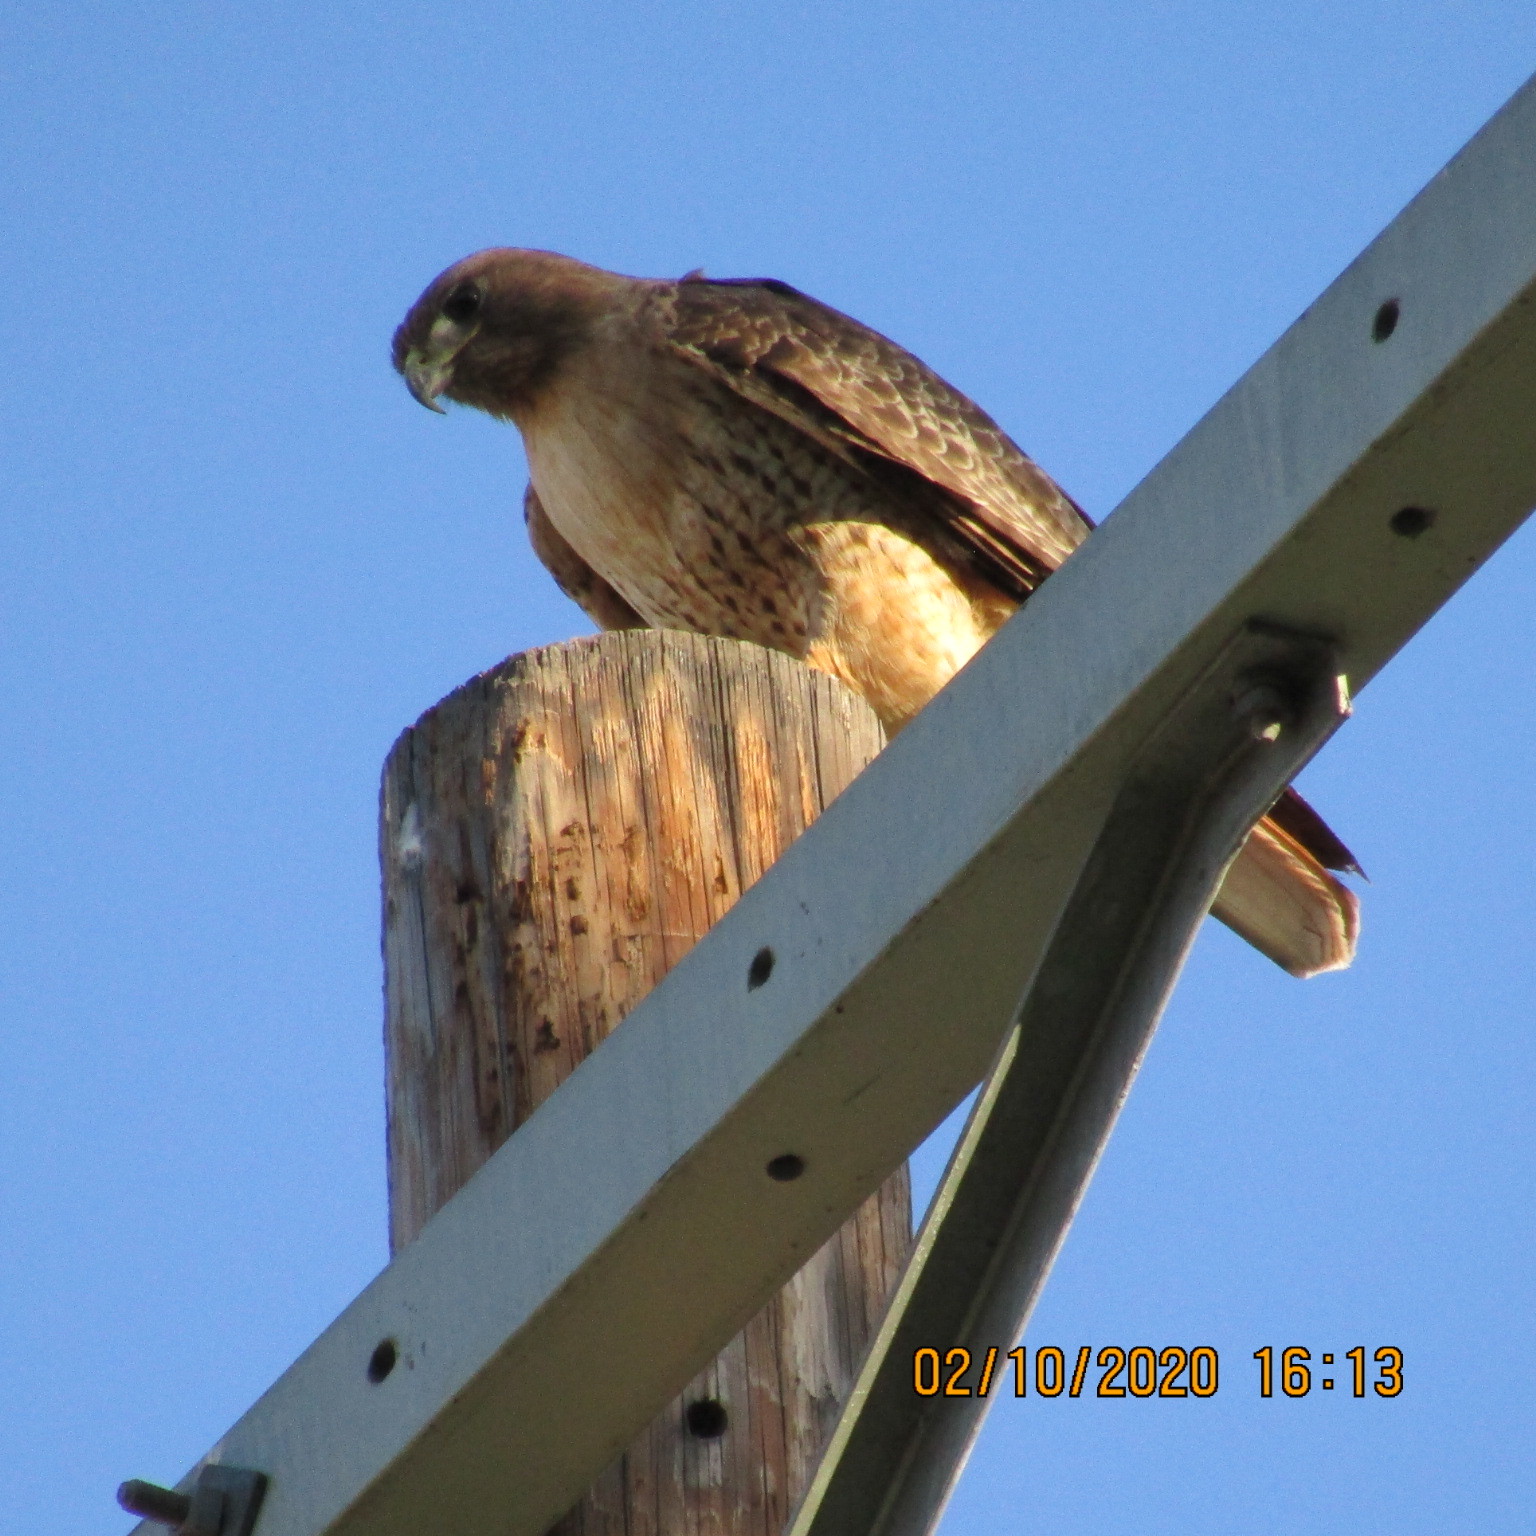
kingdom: Animalia
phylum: Chordata
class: Aves
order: Accipitriformes
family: Accipitridae
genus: Buteo
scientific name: Buteo jamaicensis
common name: Red-tailed hawk
